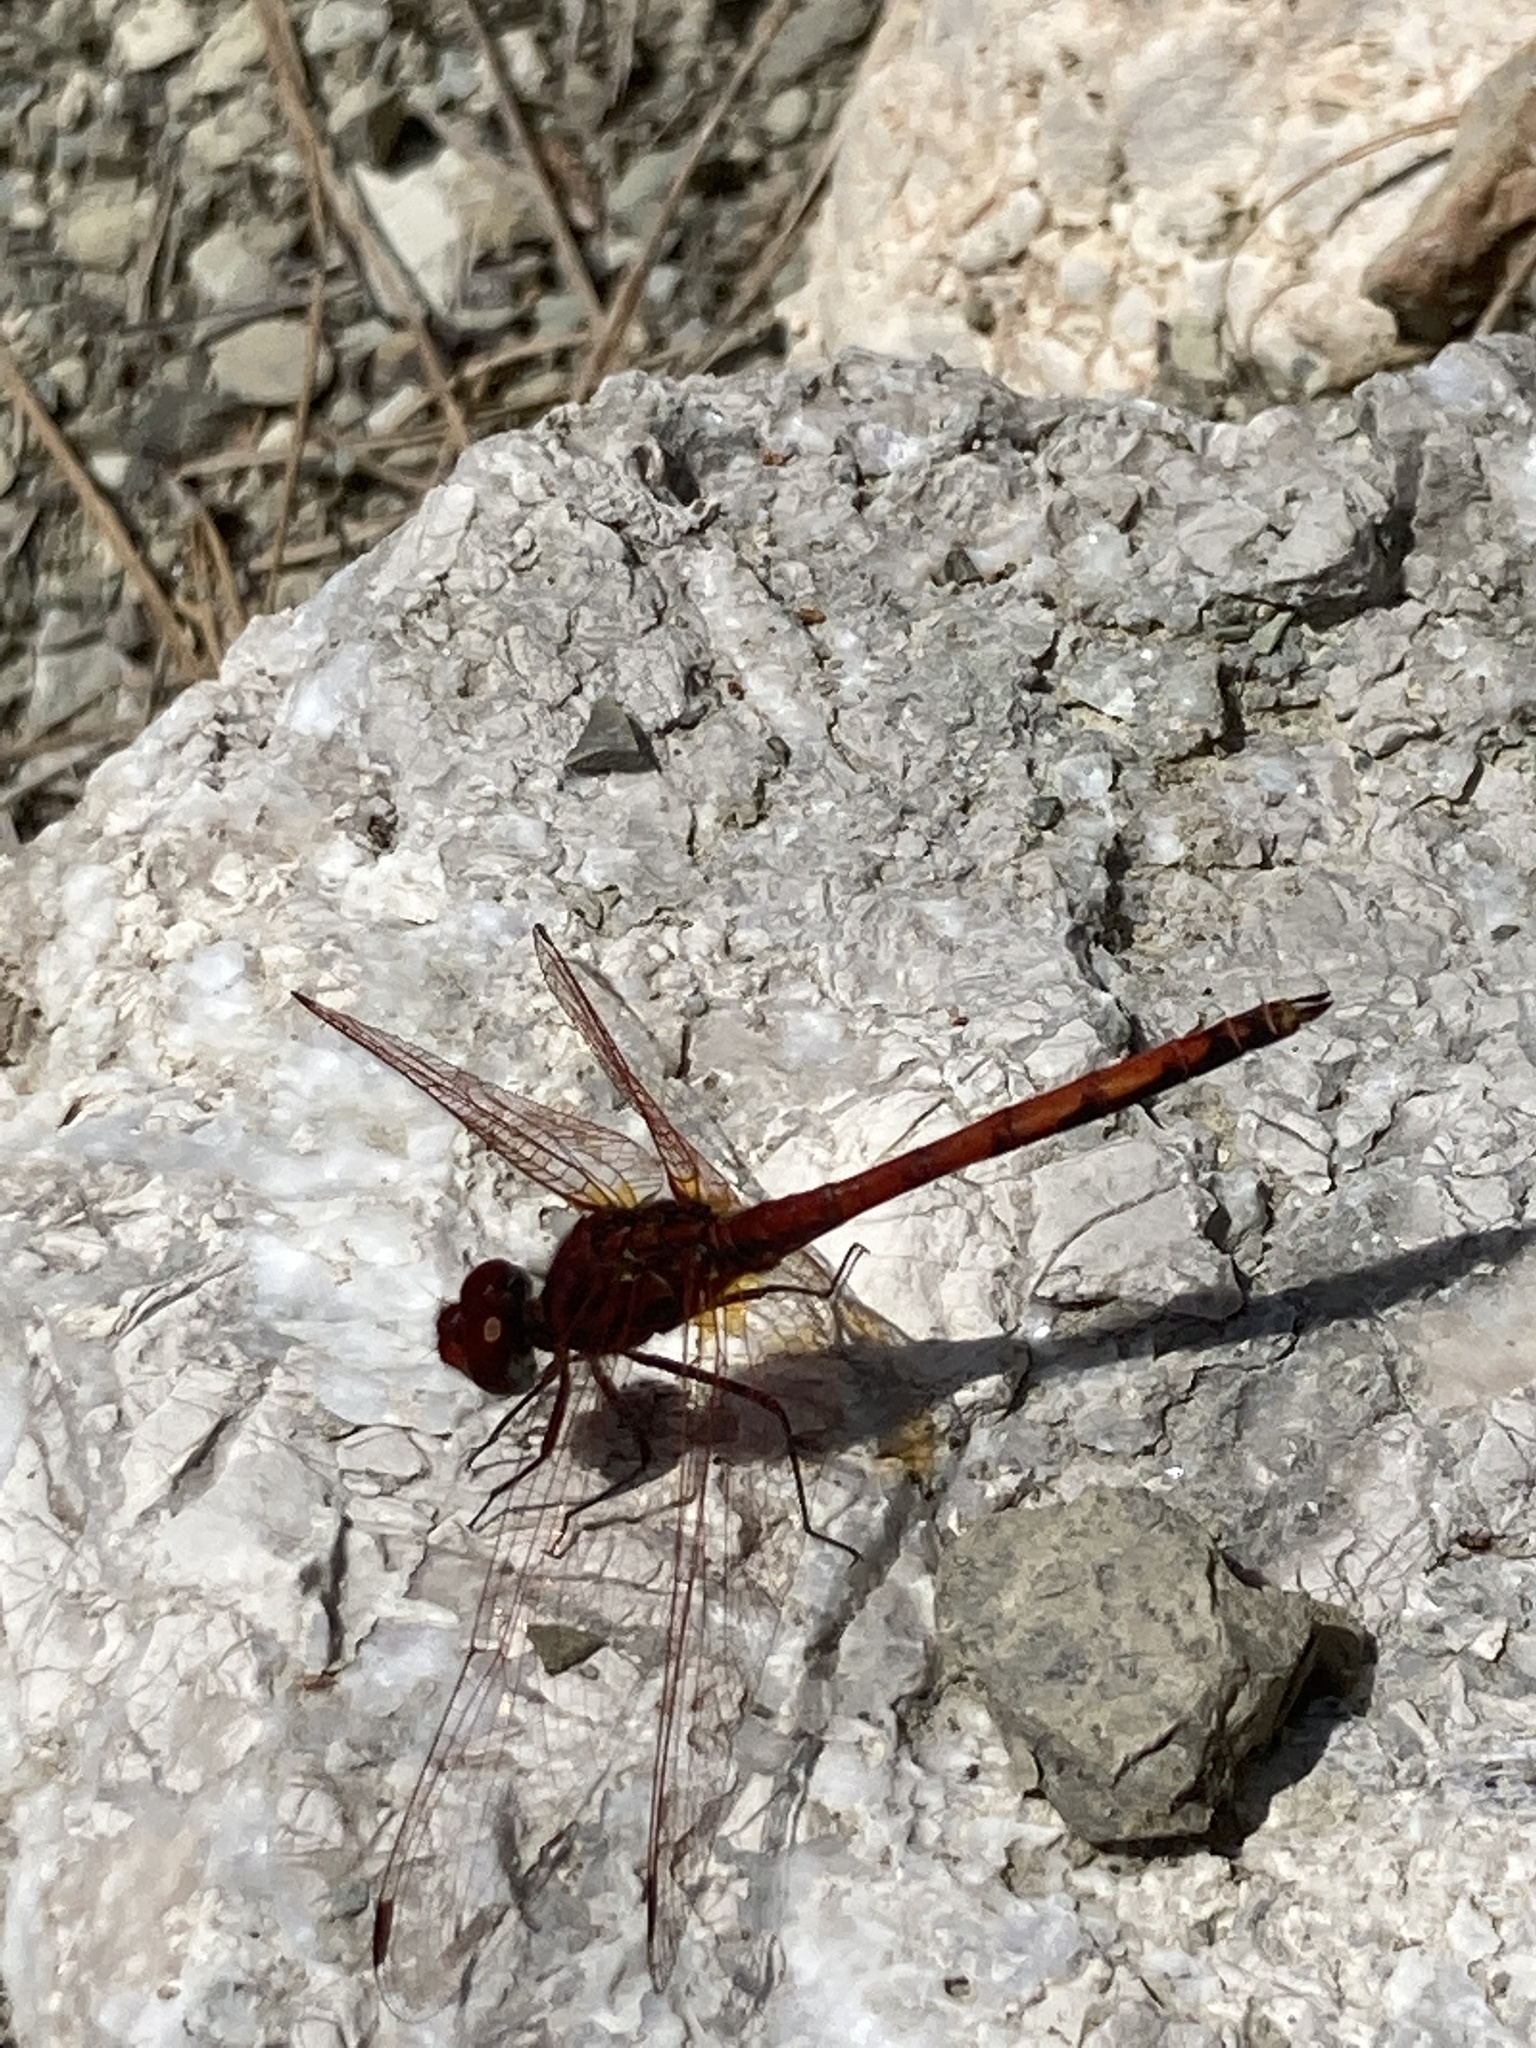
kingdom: Animalia
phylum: Arthropoda
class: Insecta
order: Odonata
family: Libellulidae
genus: Trithemis
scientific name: Trithemis arteriosa
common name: Red-veined dropwing
